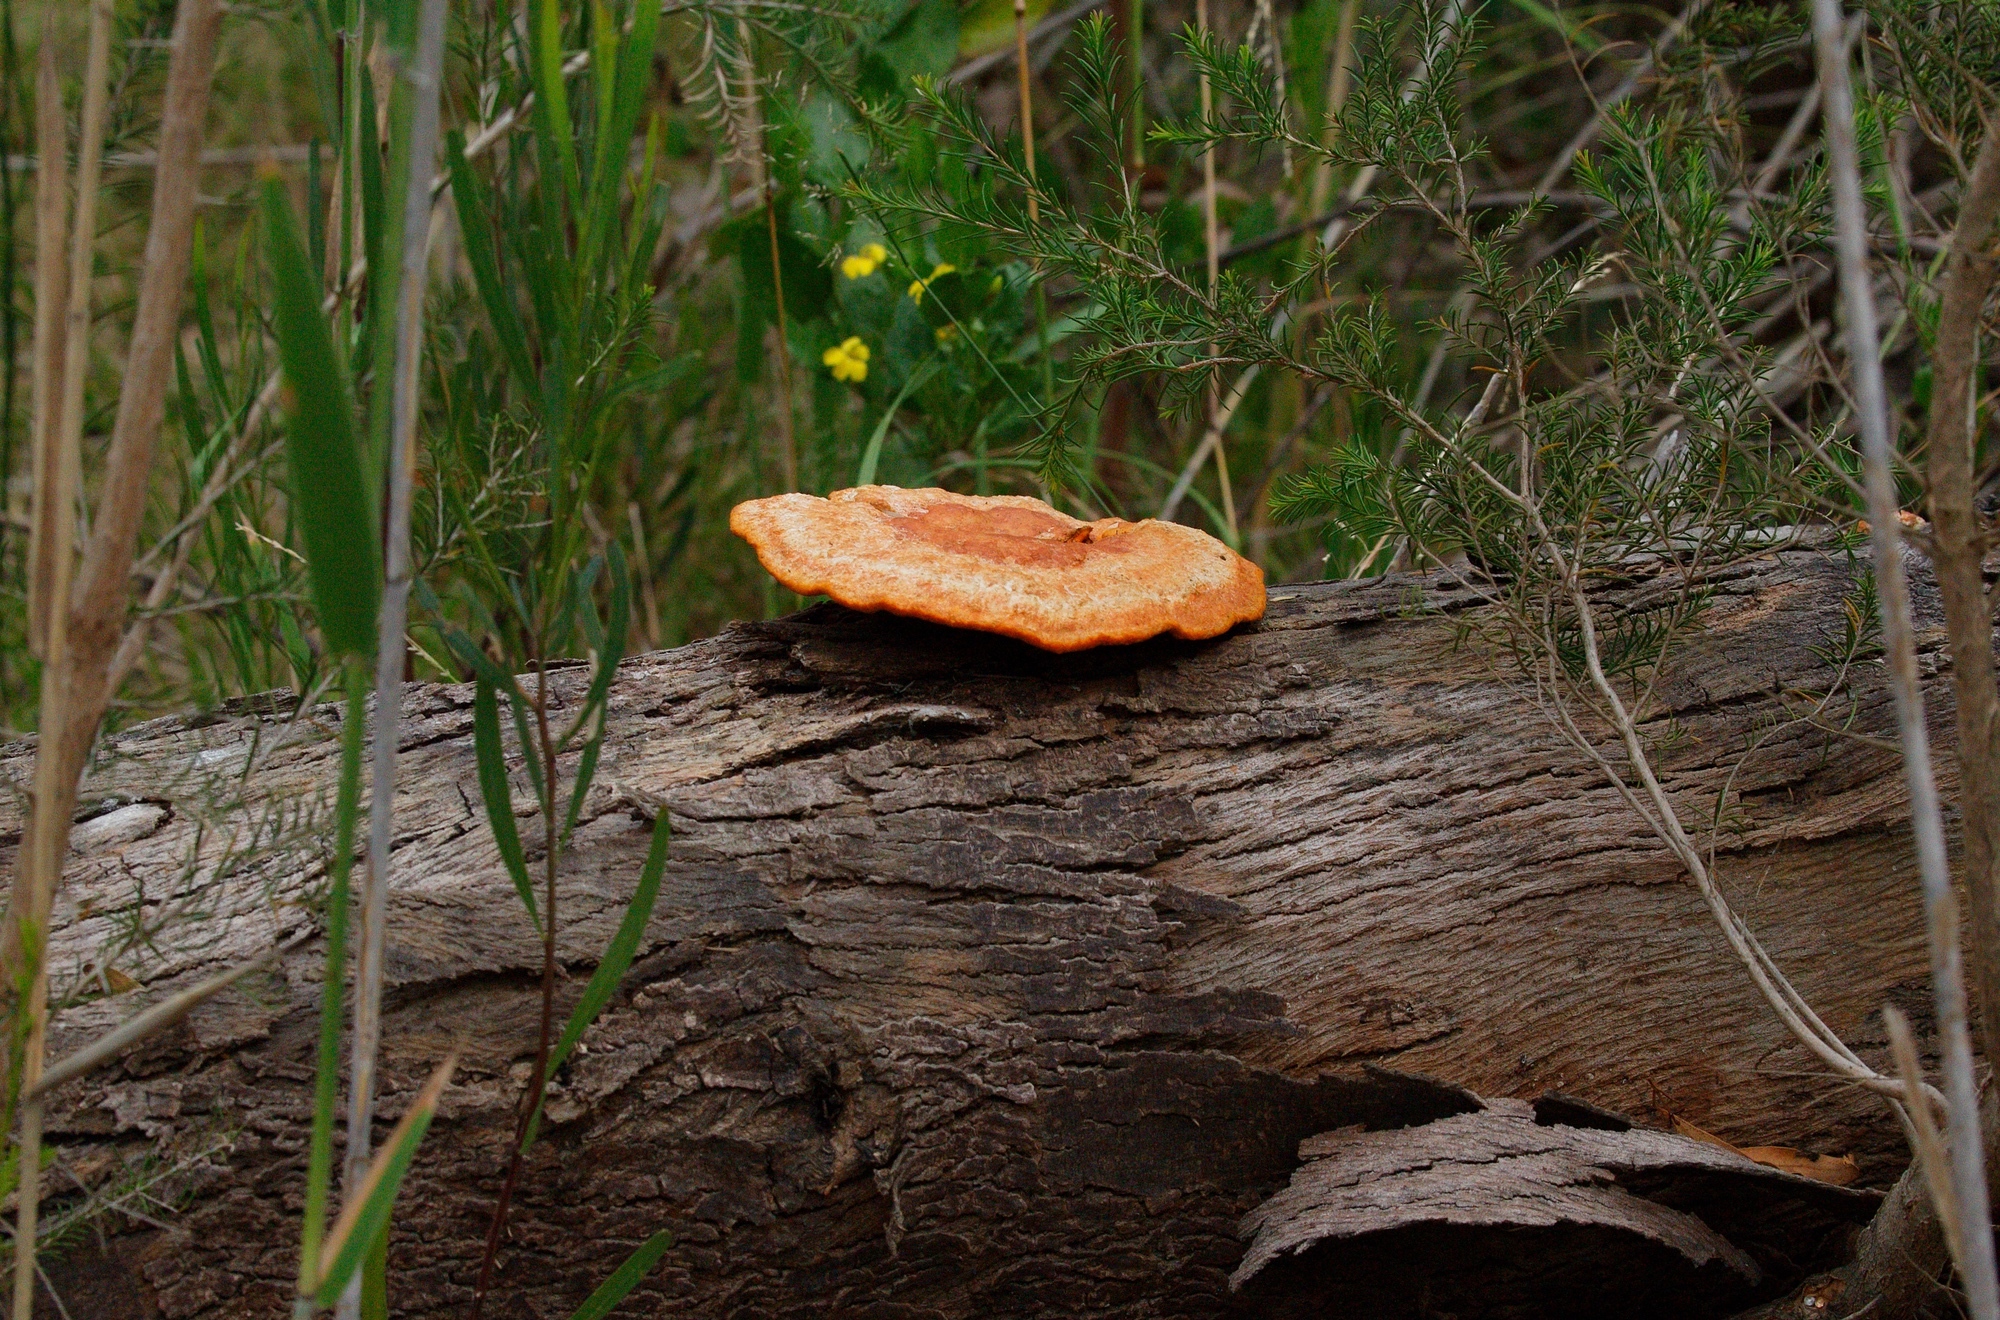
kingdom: Fungi
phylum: Basidiomycota
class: Agaricomycetes
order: Polyporales
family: Polyporaceae
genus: Trametes
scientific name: Trametes coccinea
